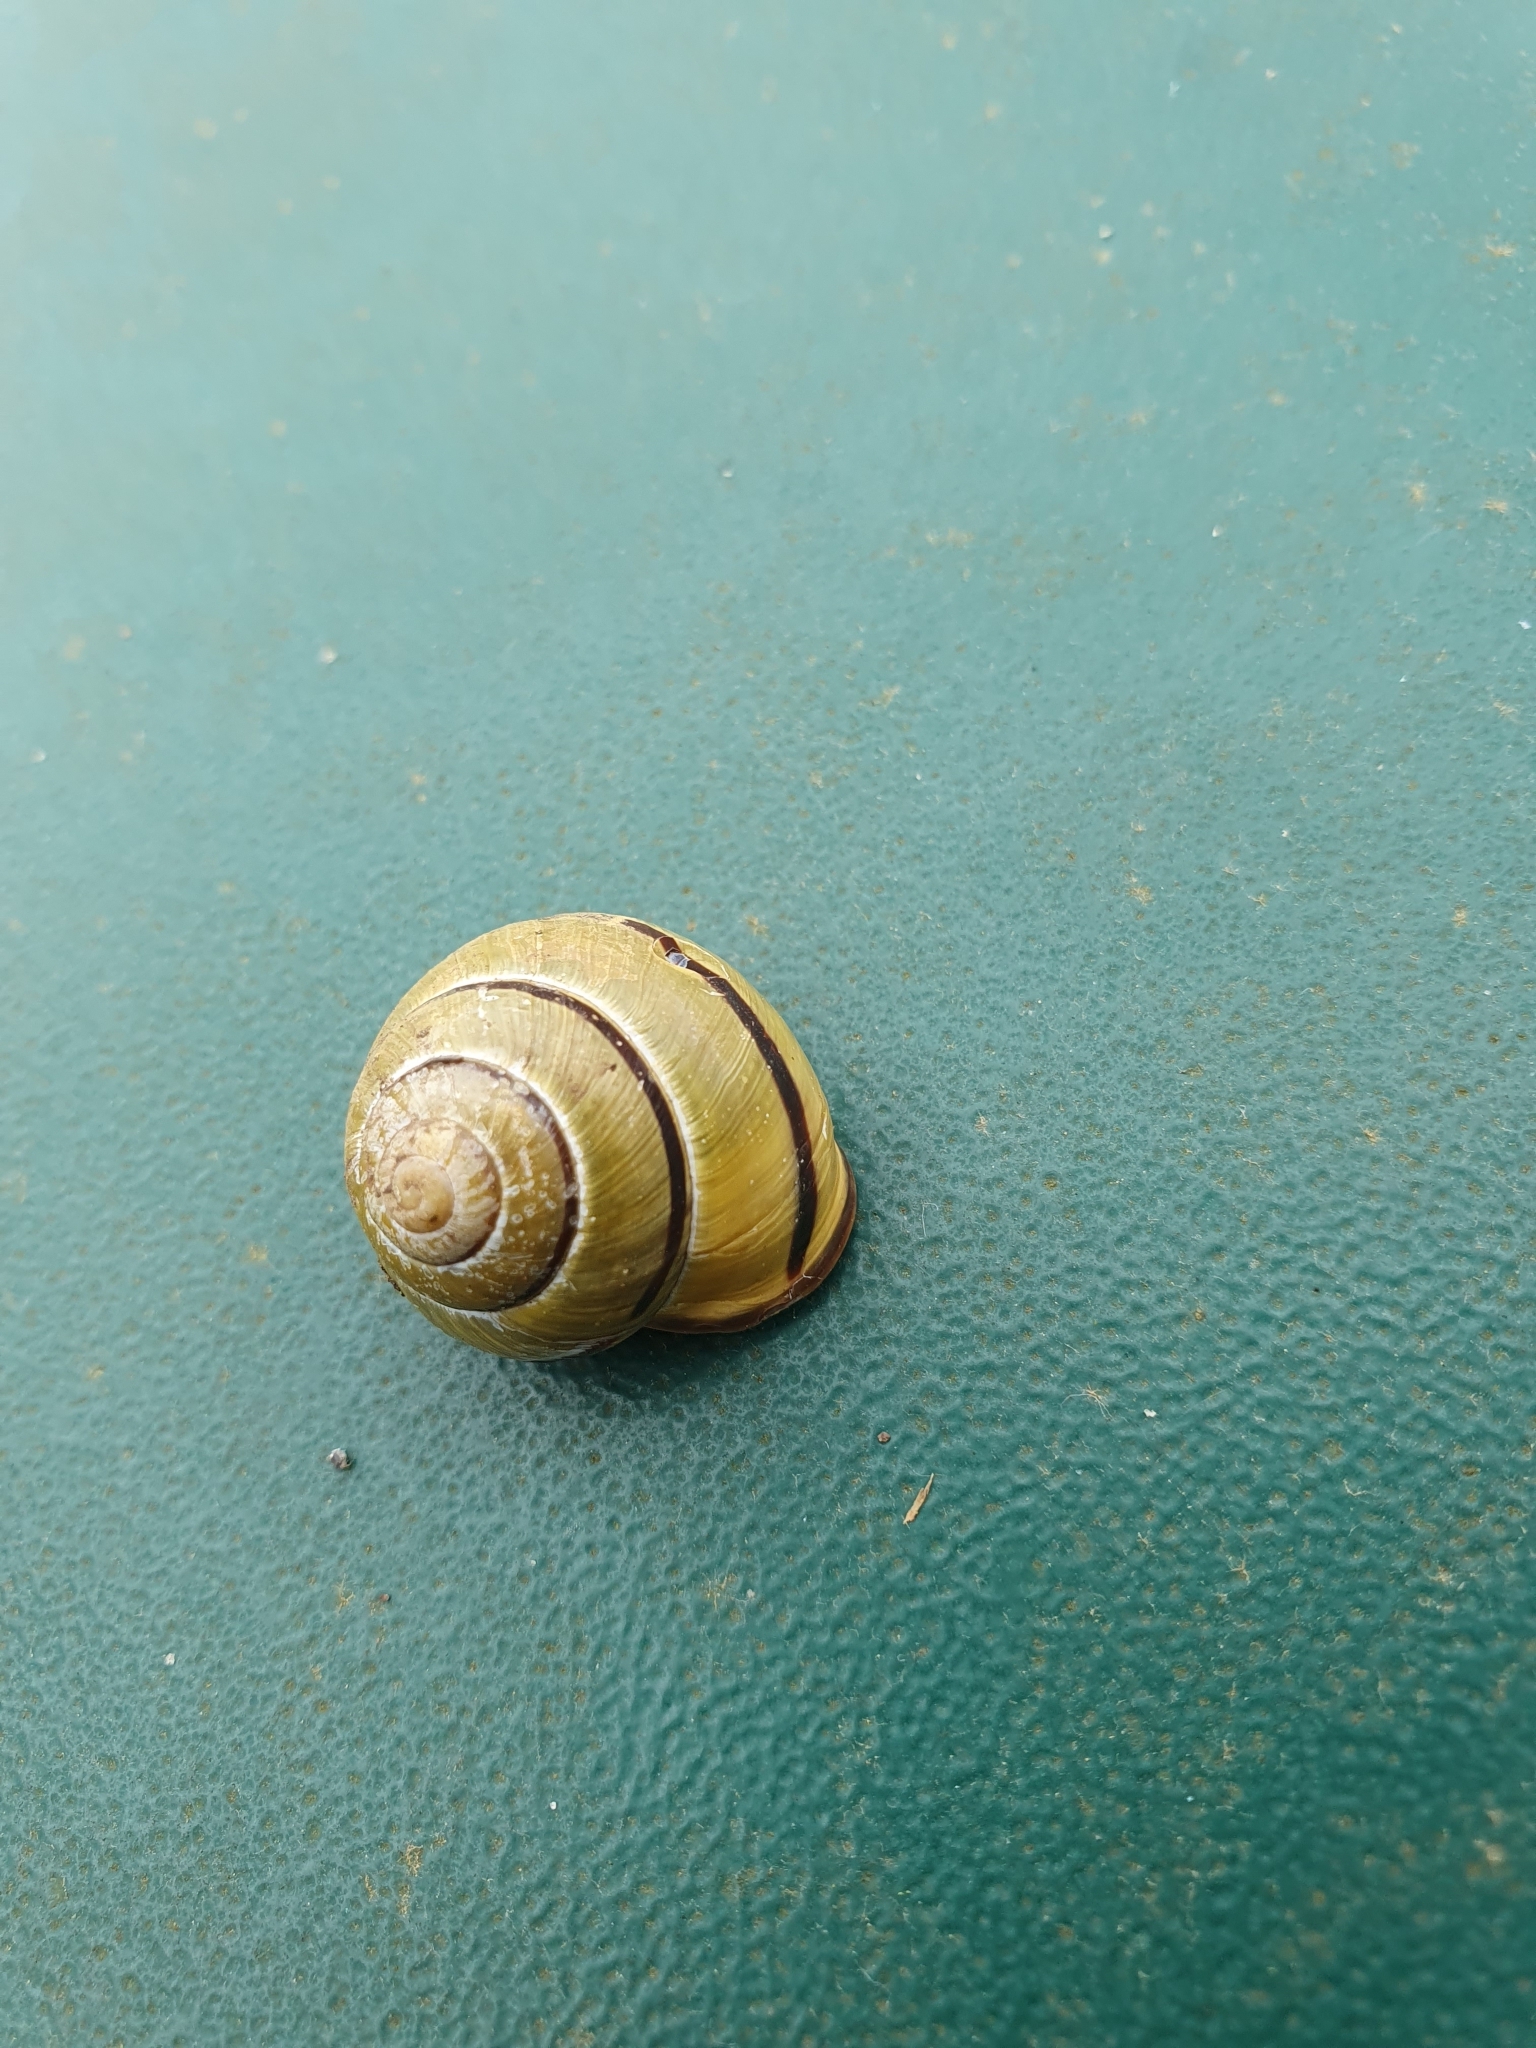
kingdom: Animalia
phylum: Mollusca
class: Gastropoda
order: Stylommatophora
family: Helicidae
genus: Cepaea
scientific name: Cepaea nemoralis
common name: Grovesnail
